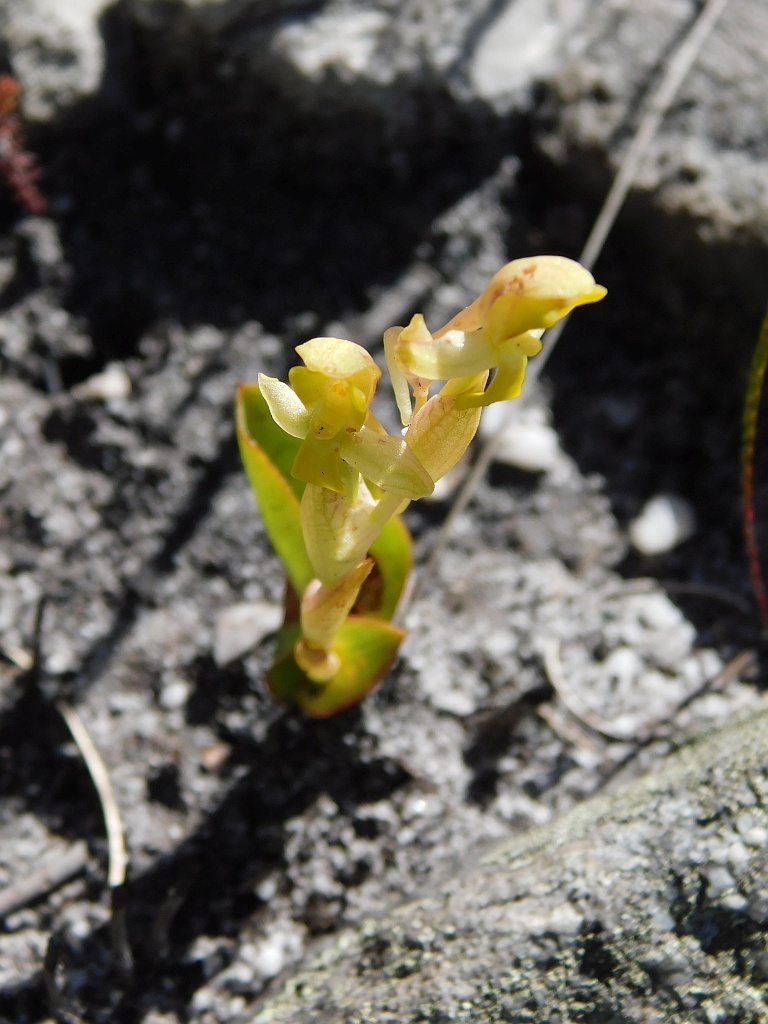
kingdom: Plantae
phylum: Tracheophyta
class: Liliopsida
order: Asparagales
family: Orchidaceae
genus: Disa
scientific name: Disa comosa
